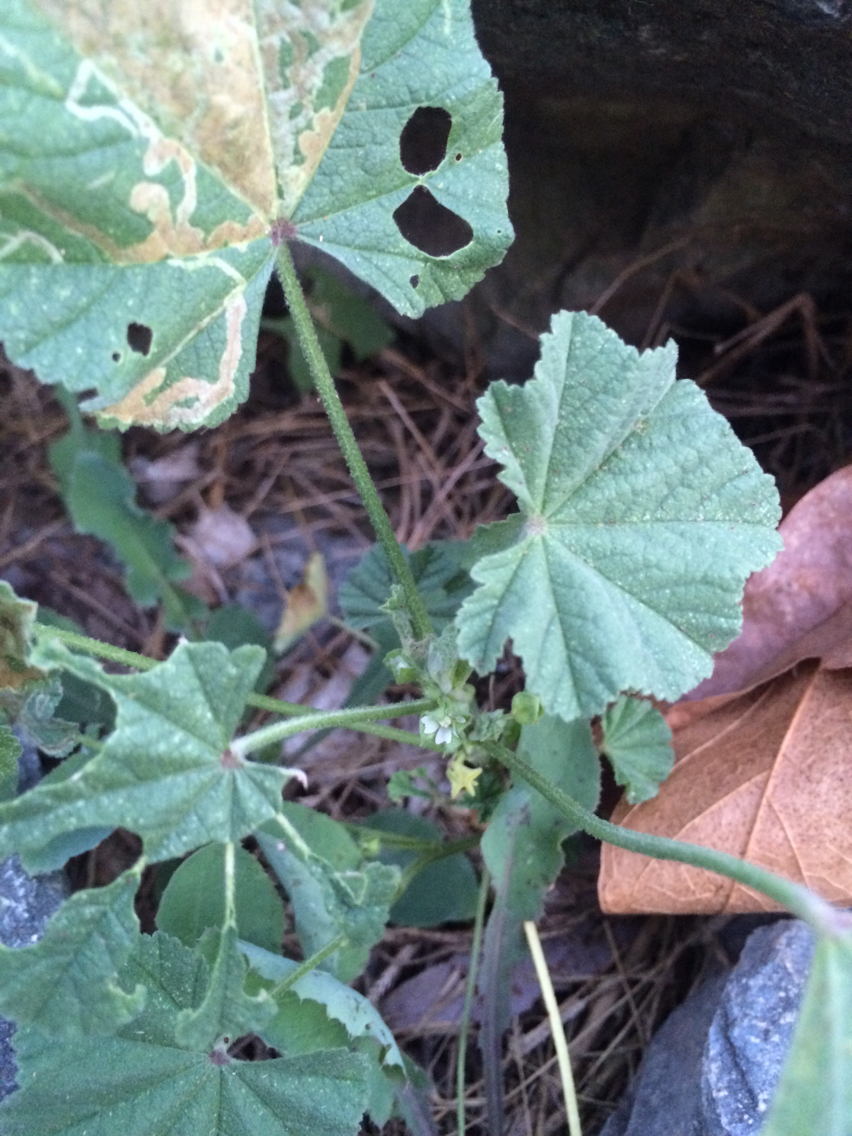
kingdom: Plantae
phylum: Tracheophyta
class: Magnoliopsida
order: Malvales
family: Malvaceae
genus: Malva
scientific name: Malva parviflora
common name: Least mallow
